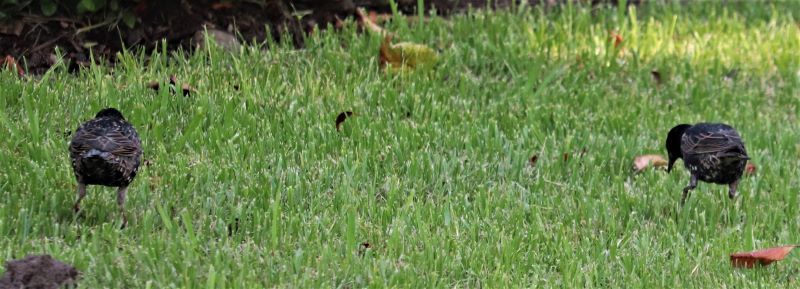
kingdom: Animalia
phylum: Chordata
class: Aves
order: Passeriformes
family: Sturnidae
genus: Sturnus
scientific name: Sturnus vulgaris
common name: Common starling
